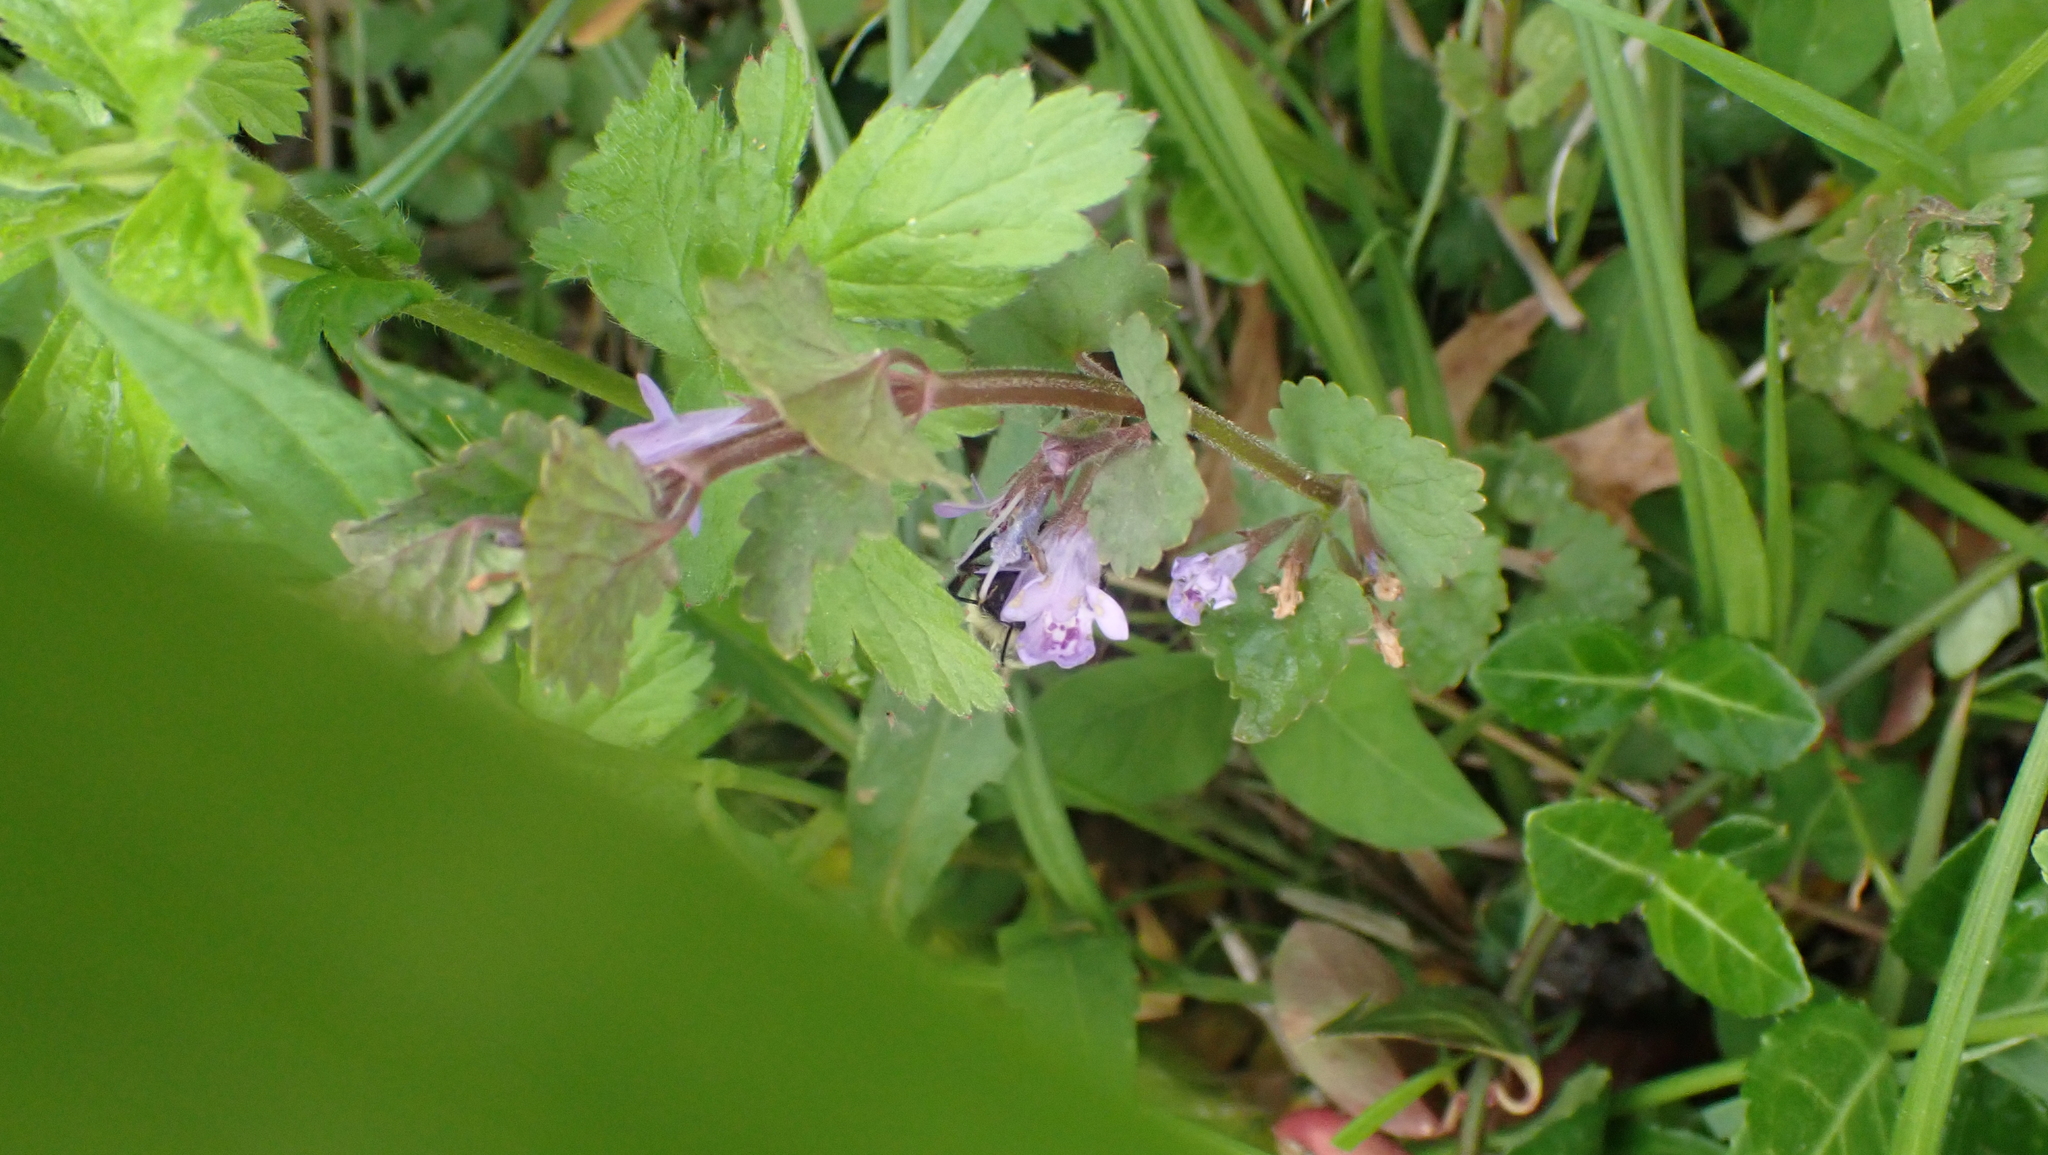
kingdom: Plantae
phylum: Tracheophyta
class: Magnoliopsida
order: Lamiales
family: Lamiaceae
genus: Glechoma
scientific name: Glechoma hederacea
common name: Ground ivy
